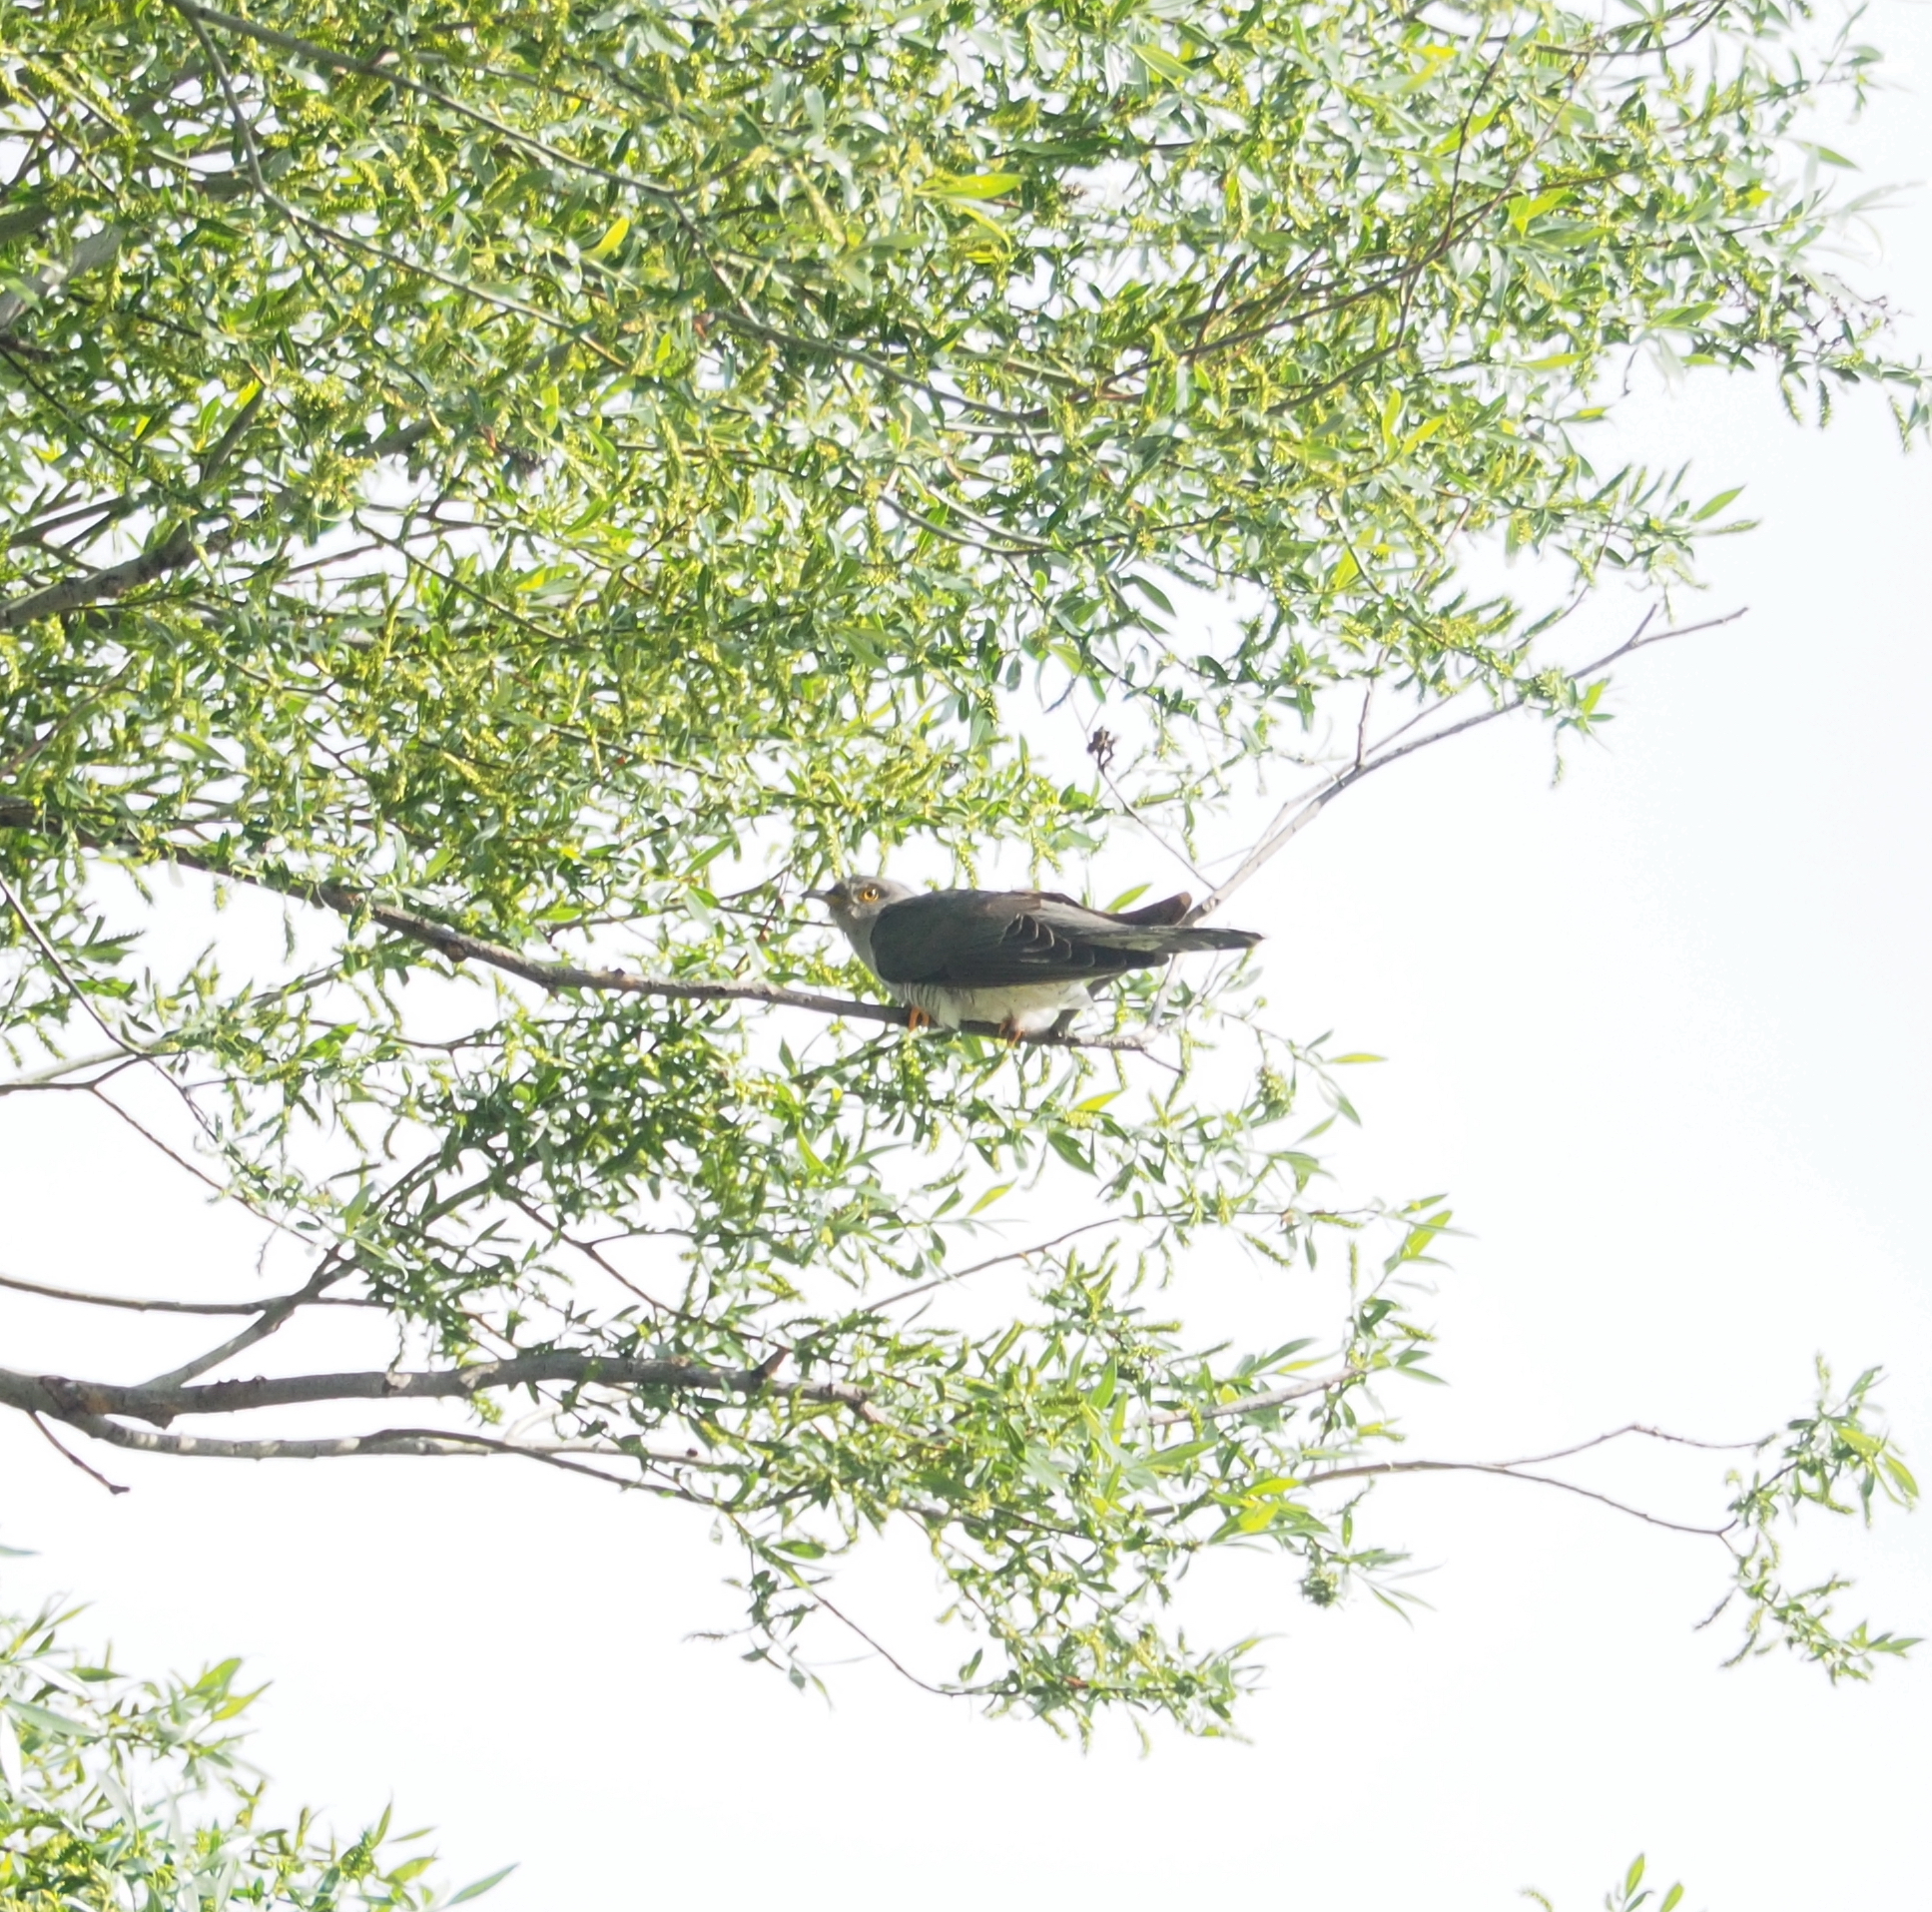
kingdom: Animalia
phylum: Chordata
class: Aves
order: Cuculiformes
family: Cuculidae
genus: Cuculus
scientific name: Cuculus canorus
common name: Common cuckoo
